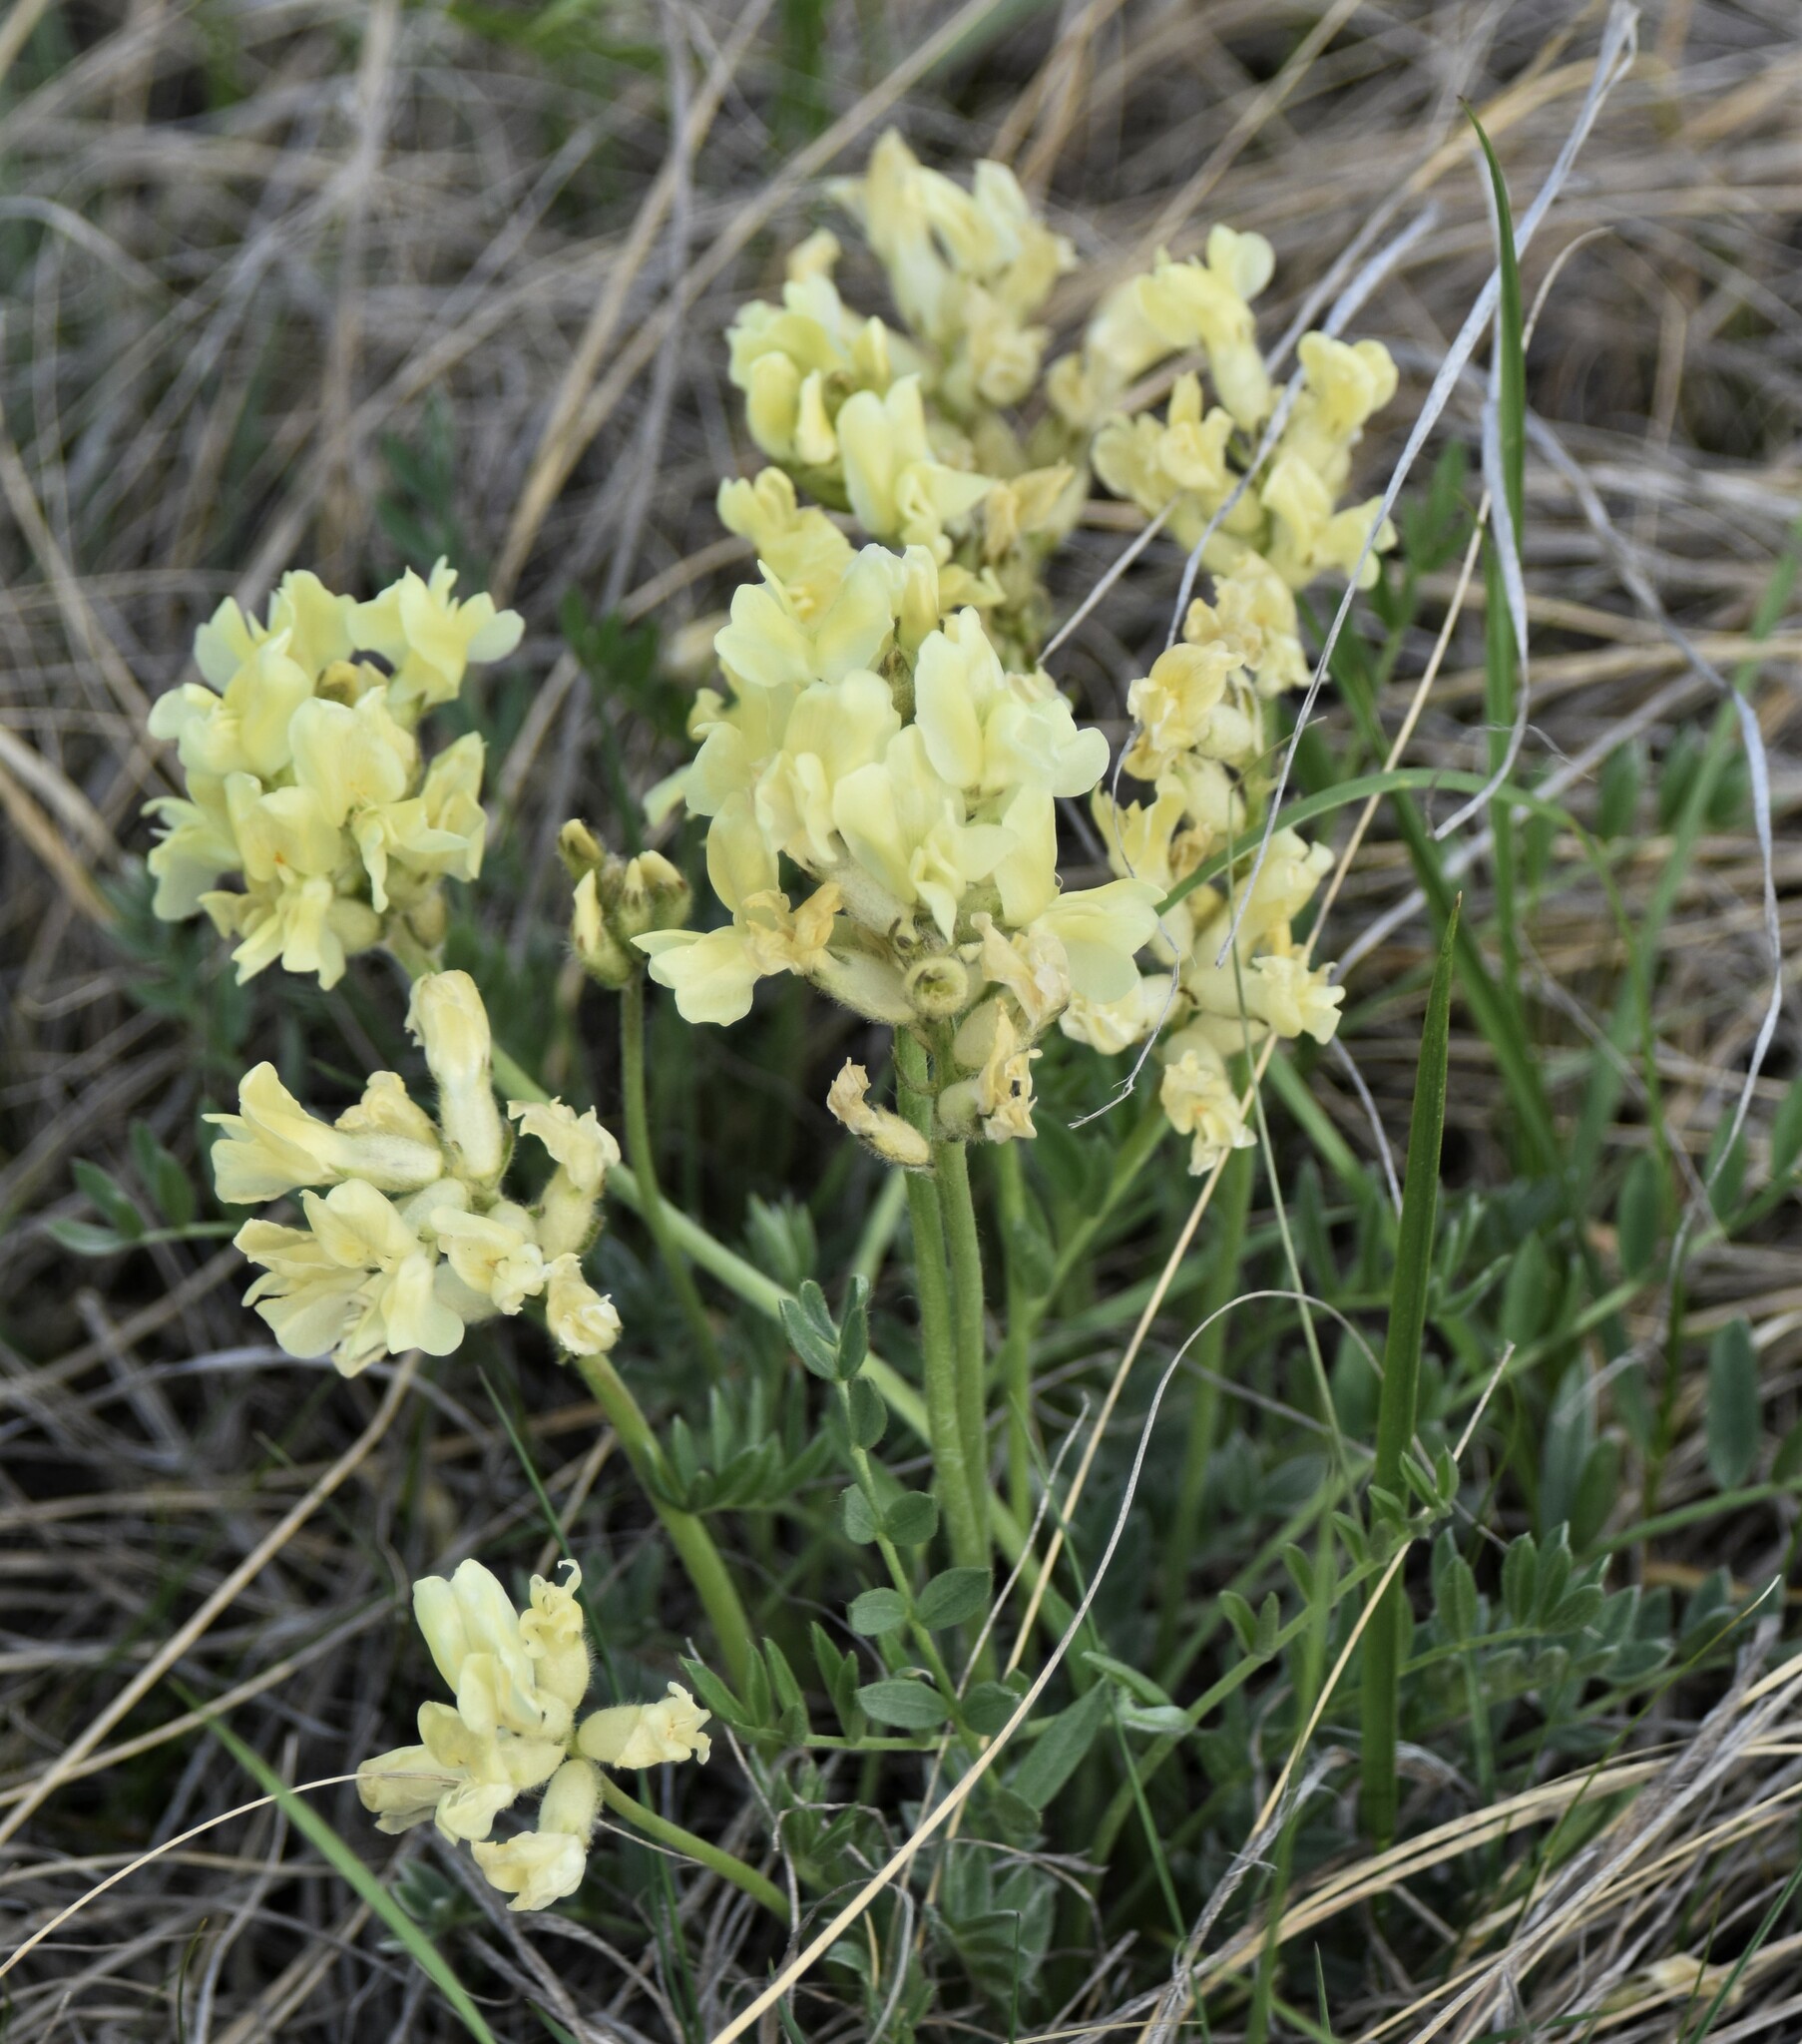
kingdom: Plantae
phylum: Tracheophyta
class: Magnoliopsida
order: Fabales
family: Fabaceae
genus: Oxytropis
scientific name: Oxytropis sericea
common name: Silky locoweed
